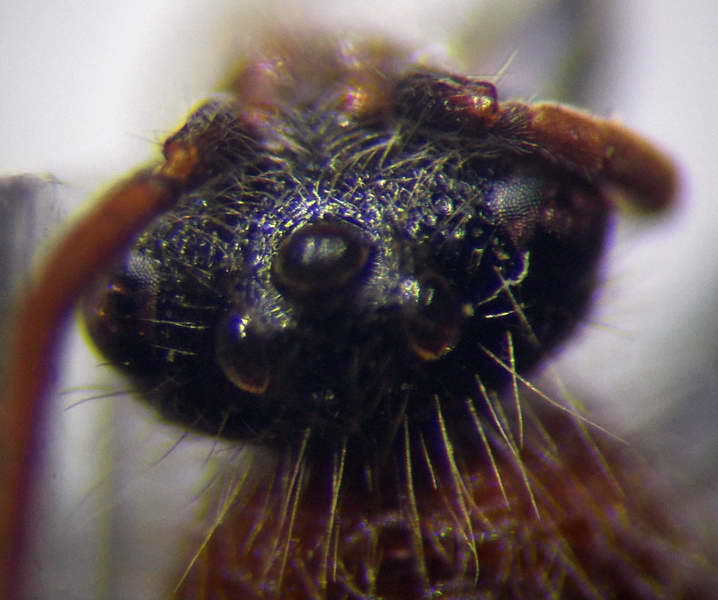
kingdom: Animalia
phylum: Arthropoda
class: Insecta
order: Hymenoptera
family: Mutillidae
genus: Smicromyrme
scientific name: Smicromyrme rufipes
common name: Small velvet ant
